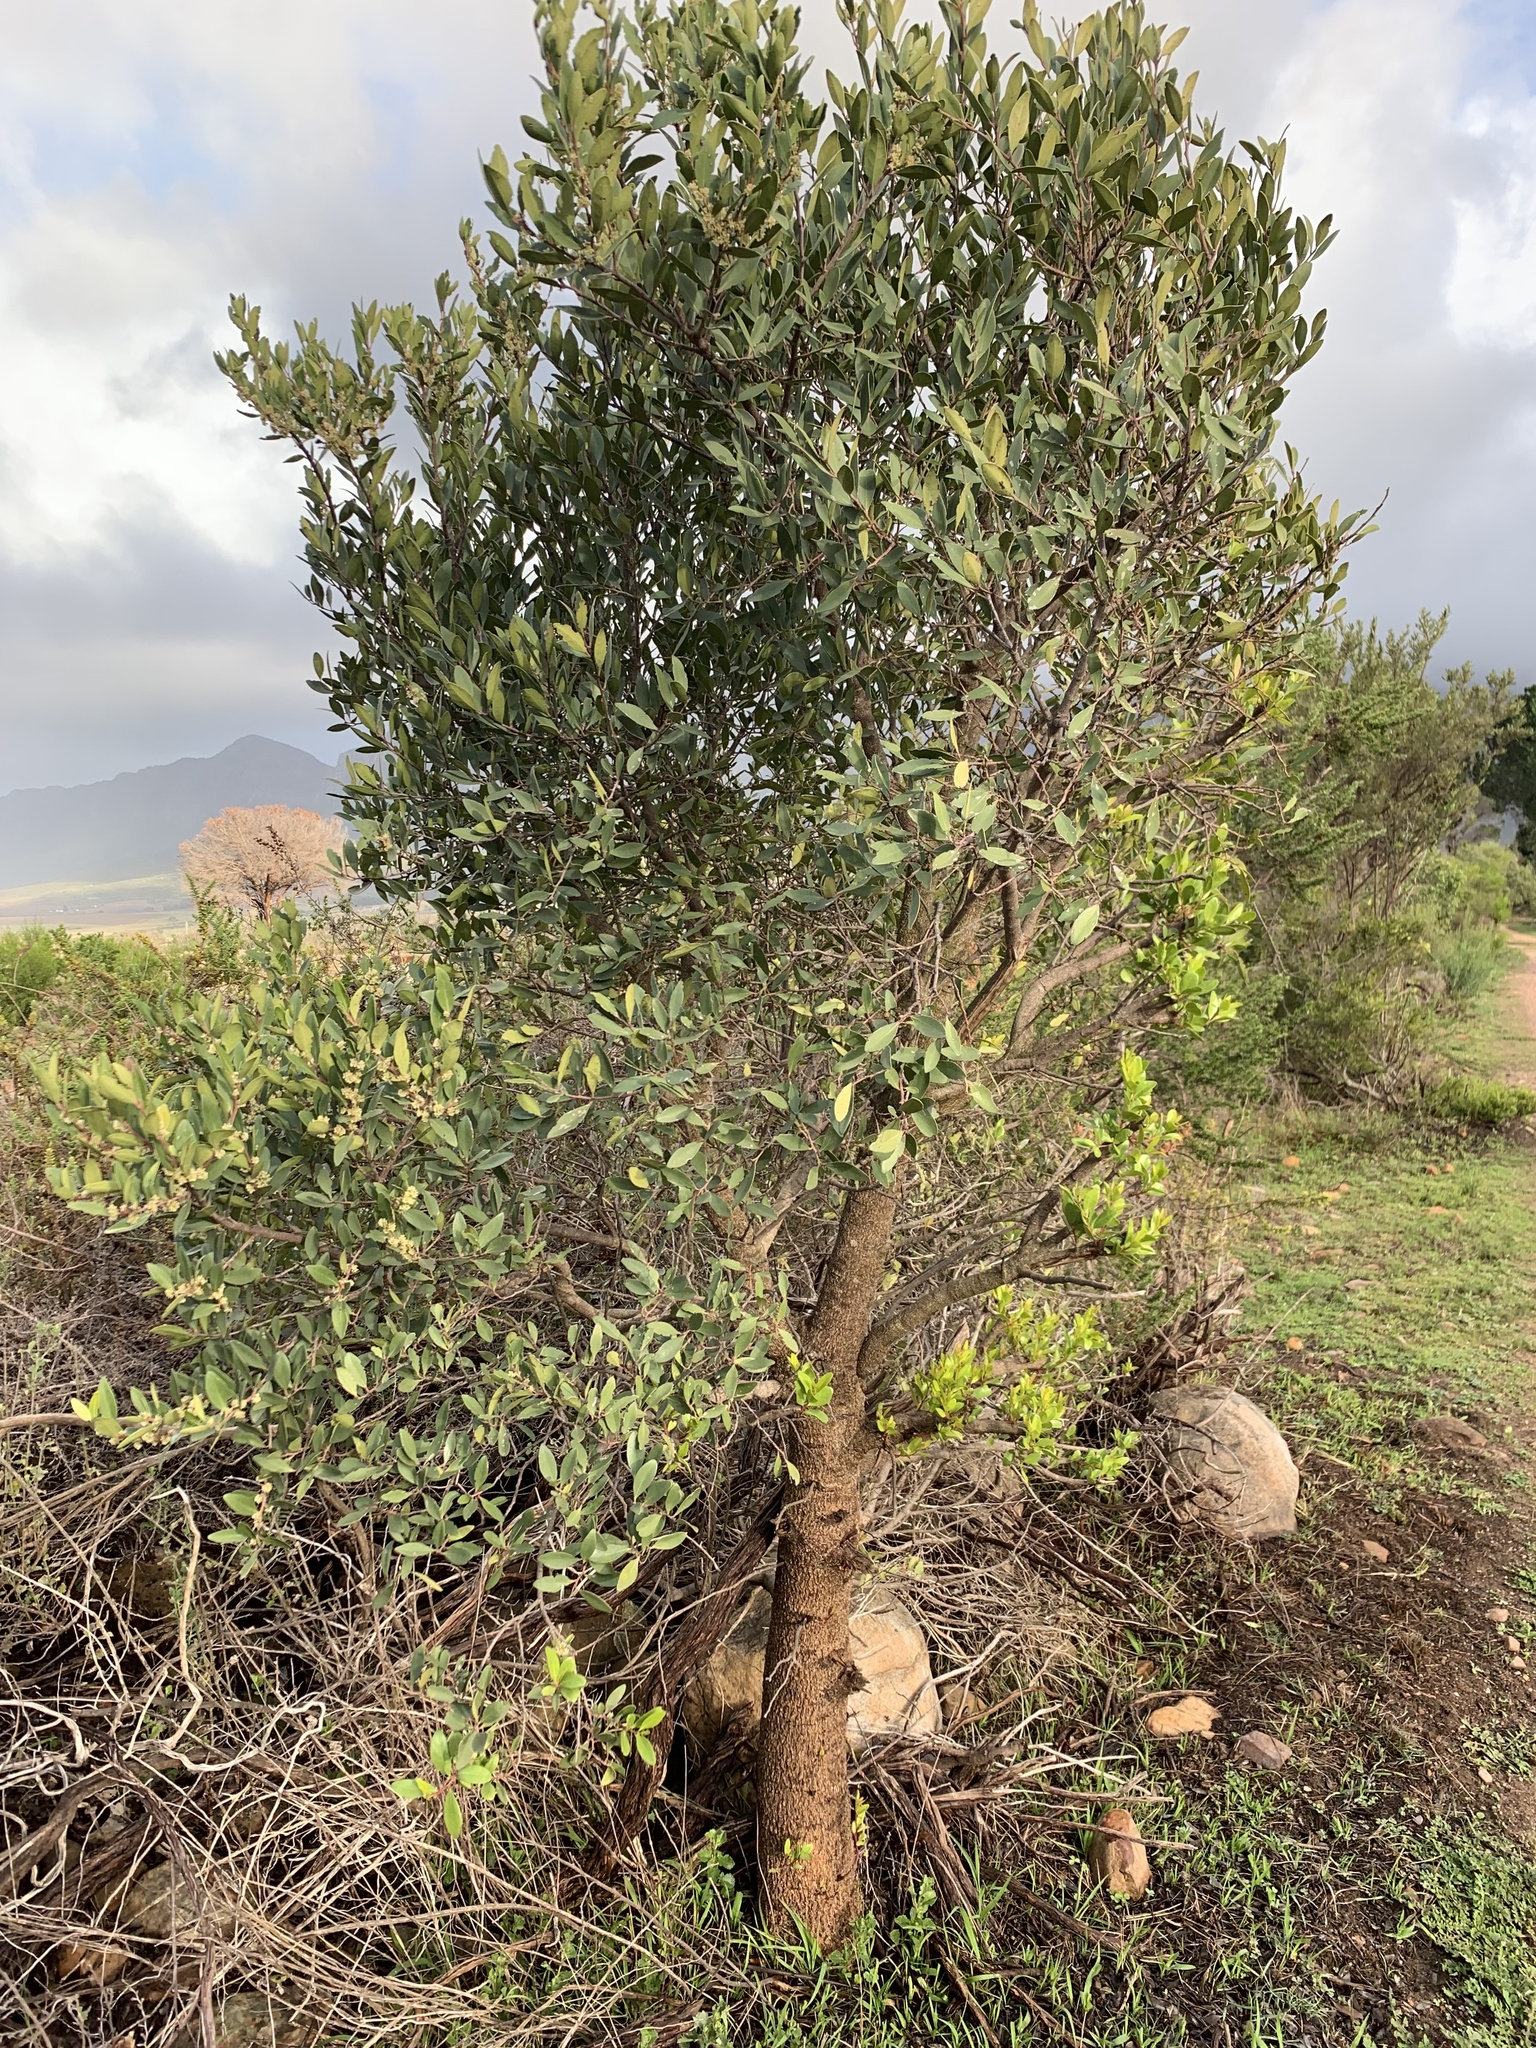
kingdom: Plantae
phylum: Tracheophyta
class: Magnoliopsida
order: Celastrales
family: Celastraceae
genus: Gymnosporia
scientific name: Gymnosporia laurina
